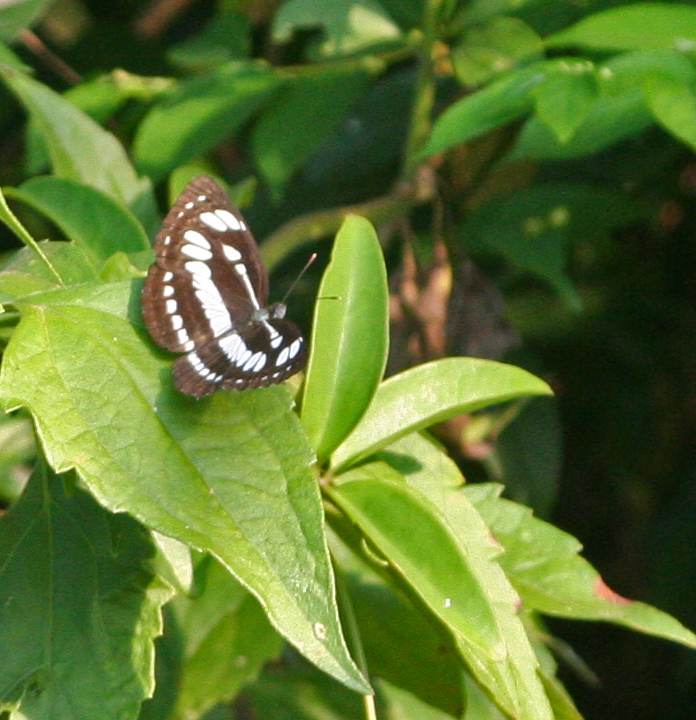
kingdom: Animalia
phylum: Arthropoda
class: Insecta
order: Lepidoptera
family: Nymphalidae
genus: Neptis
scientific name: Neptis hylas
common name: Common sailer
